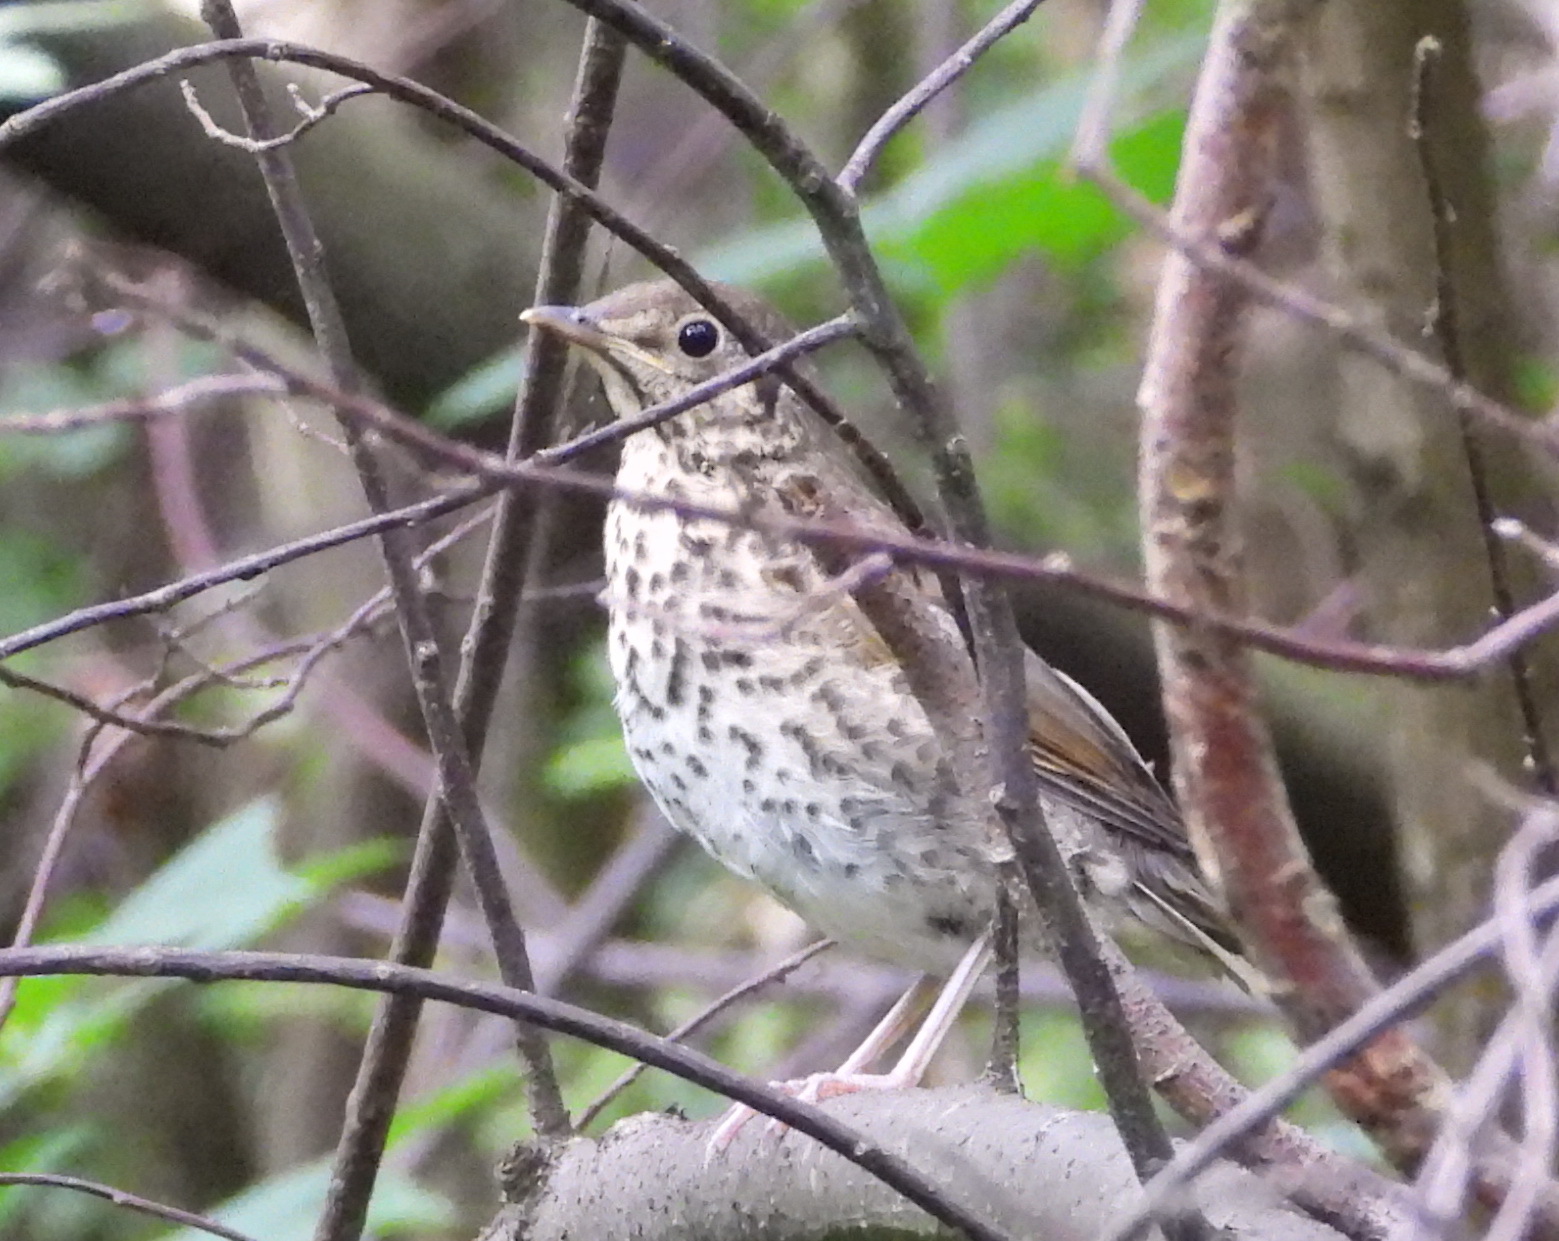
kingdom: Animalia
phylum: Chordata
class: Aves
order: Passeriformes
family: Turdidae
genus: Turdus
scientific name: Turdus philomelos
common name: Song thrush
